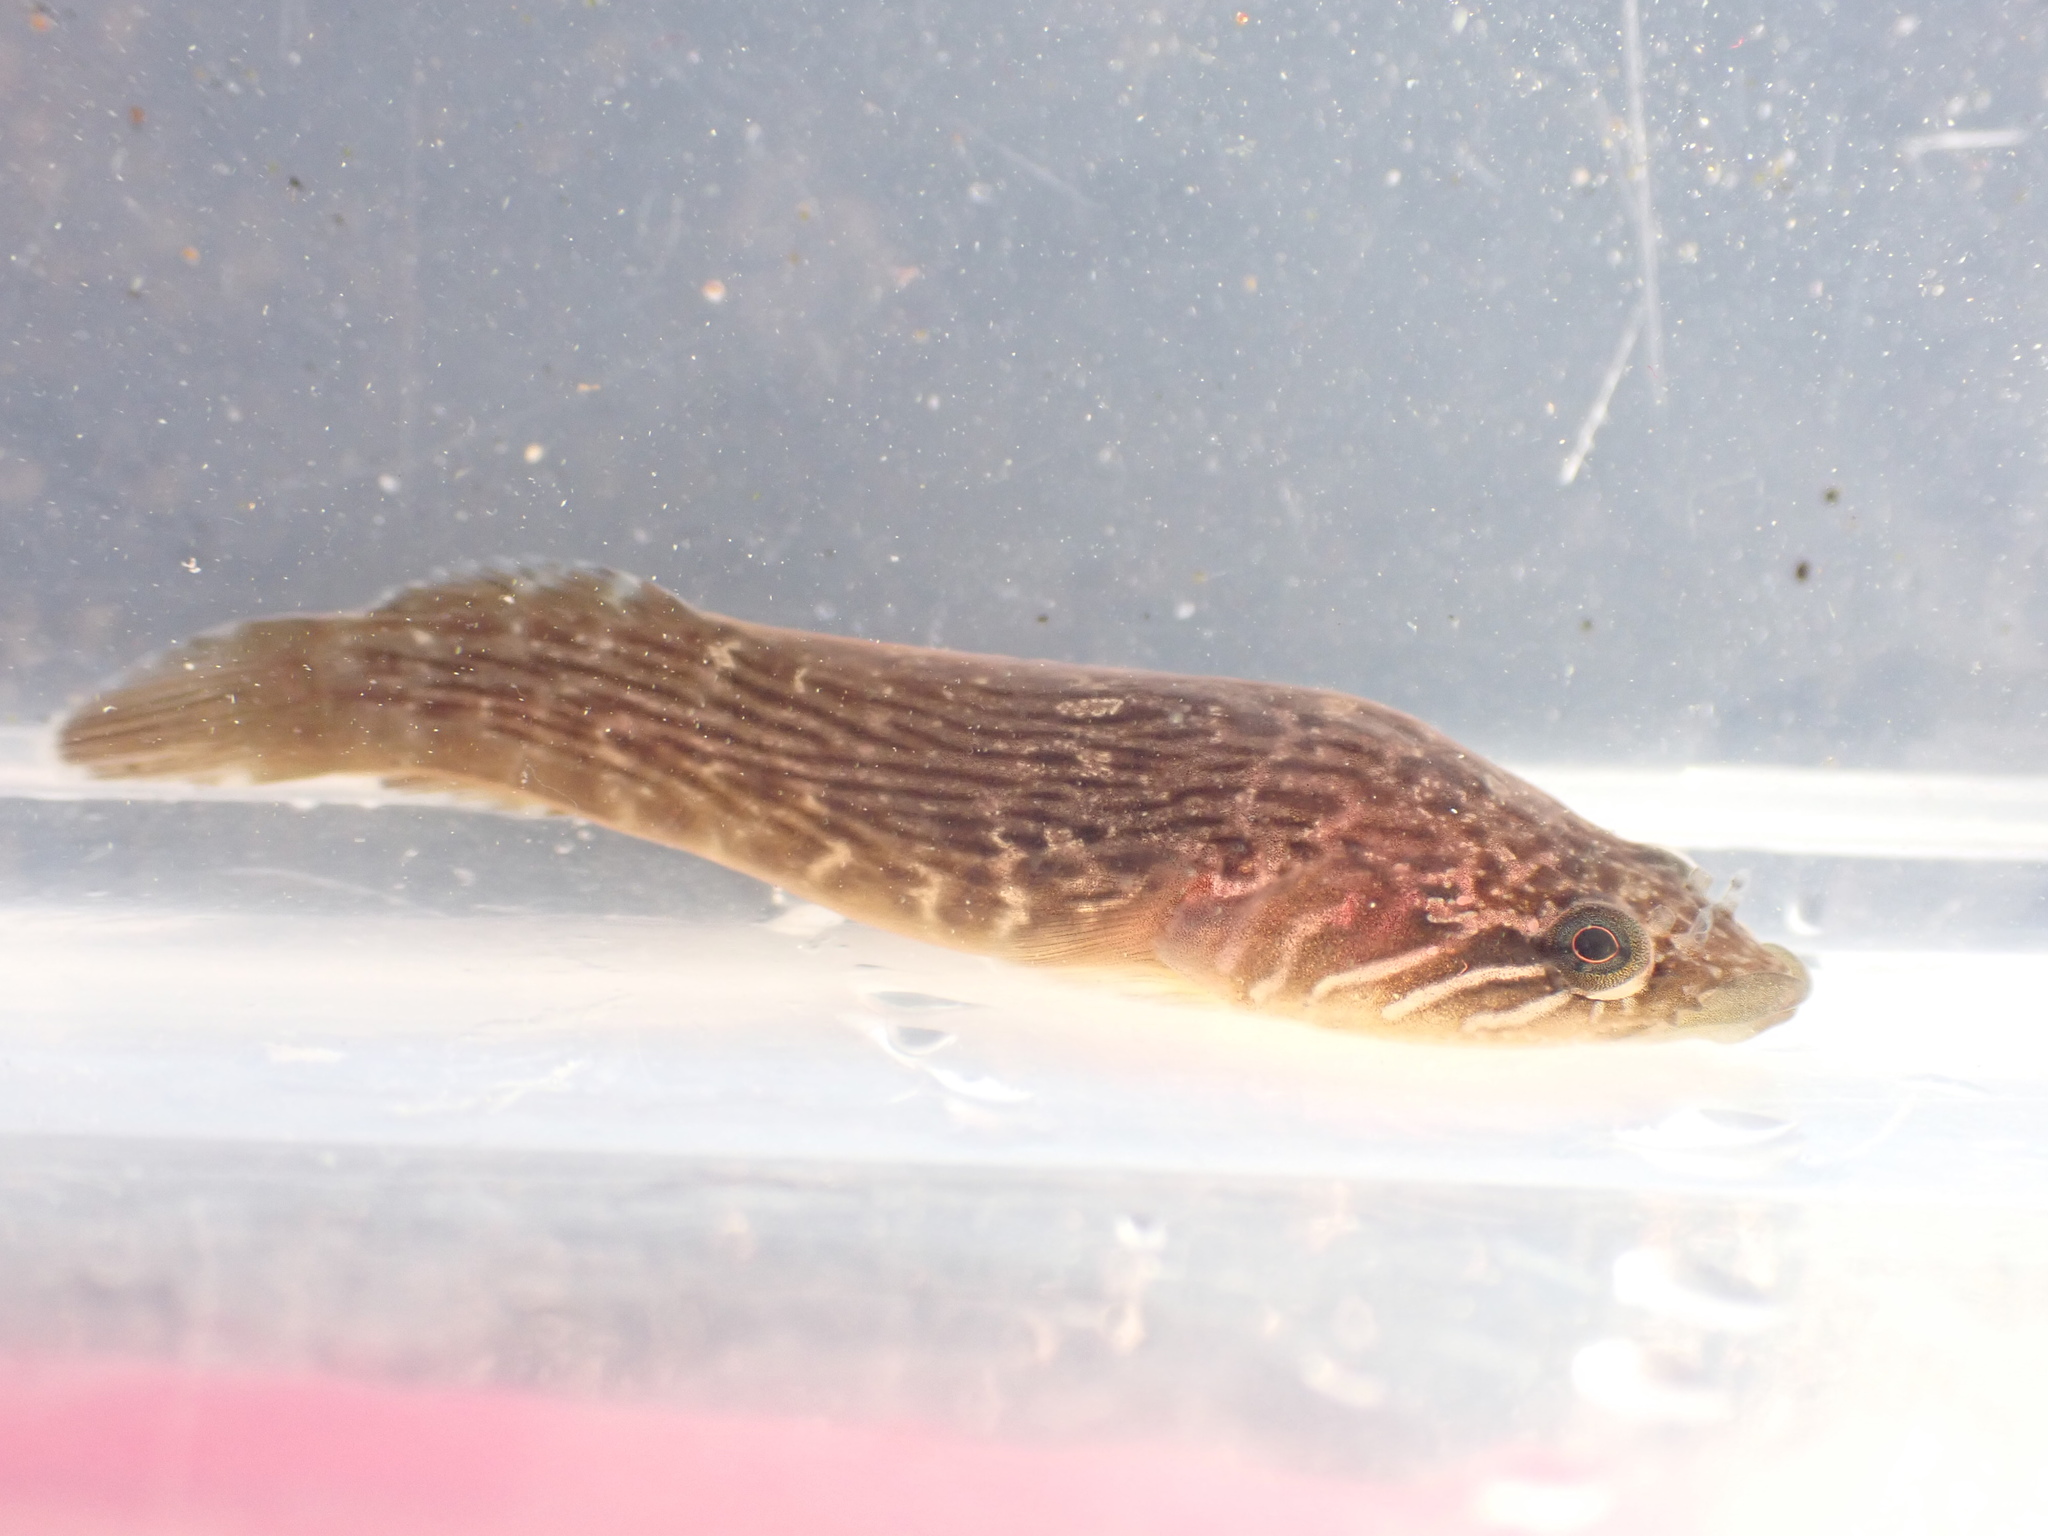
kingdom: Animalia
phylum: Chordata
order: Gobiesociformes
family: Gobiesocidae
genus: Trachelochismus
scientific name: Trachelochismus pinnulatus
